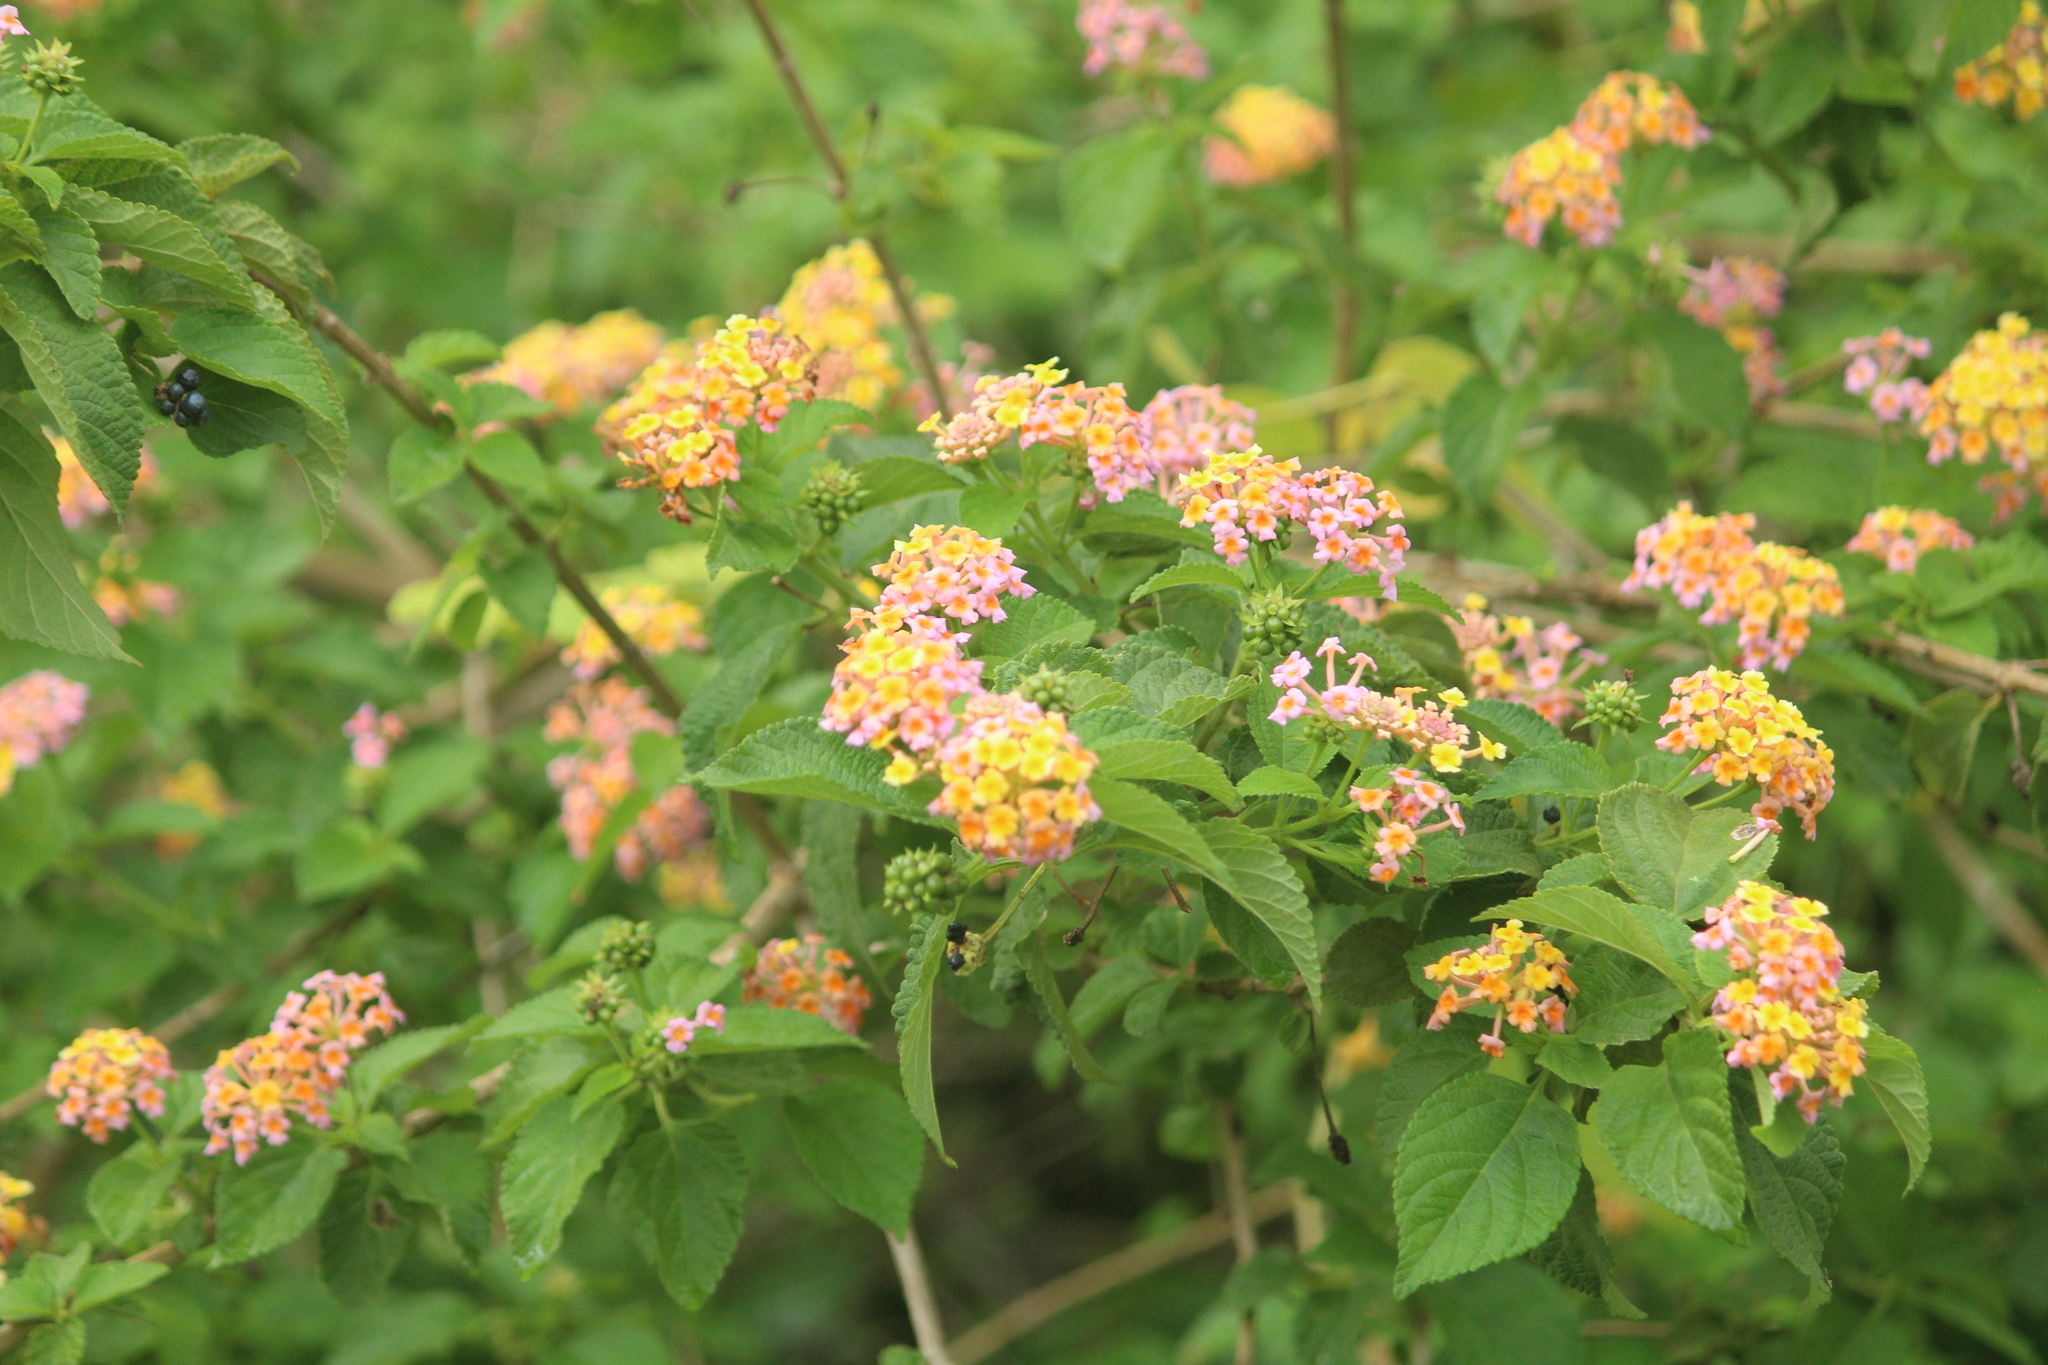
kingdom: Plantae
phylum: Tracheophyta
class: Magnoliopsida
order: Lamiales
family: Verbenaceae
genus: Lantana
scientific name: Lantana camara
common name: Lantana
